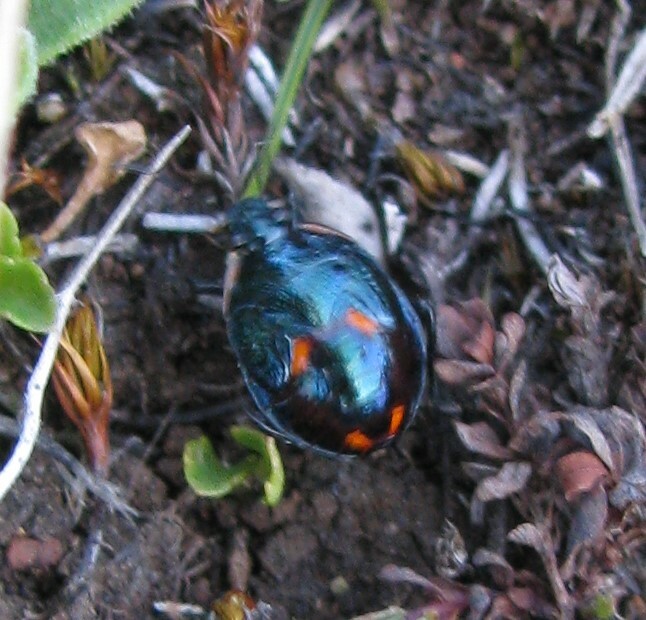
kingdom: Animalia
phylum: Arthropoda
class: Insecta
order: Hemiptera
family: Pentatomidae
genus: Cermatulus
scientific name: Cermatulus nasalis
